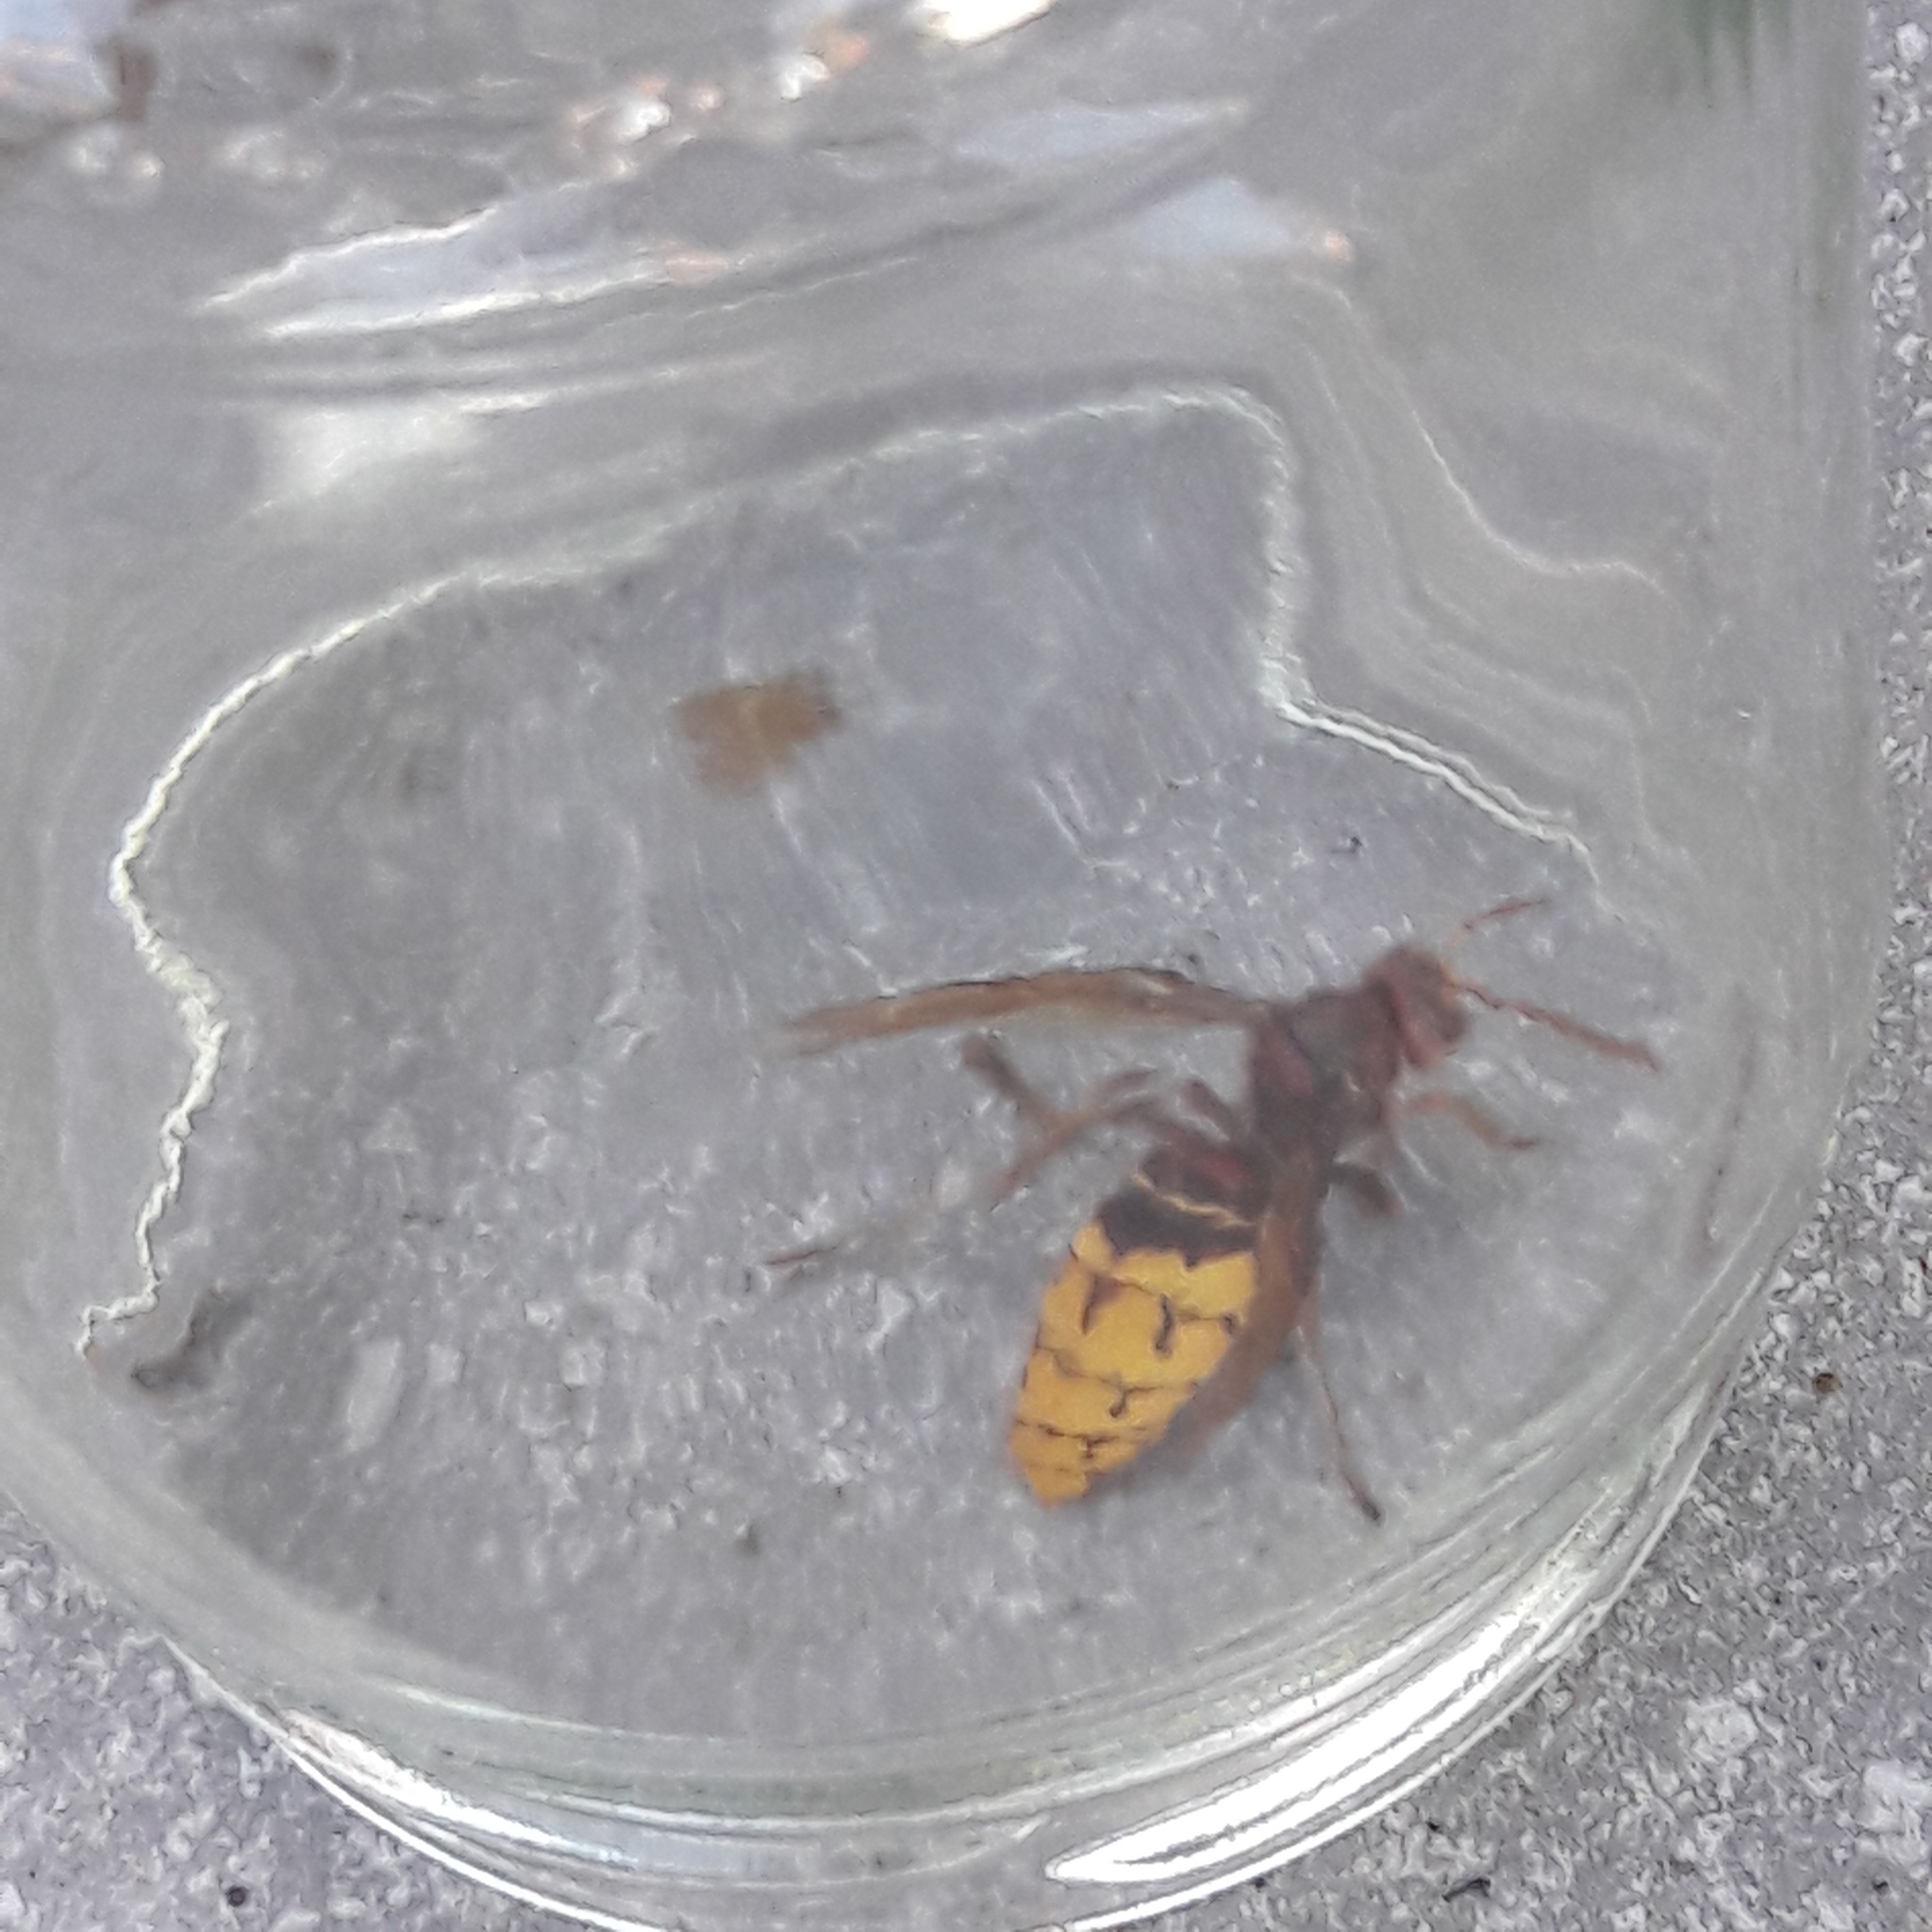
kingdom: Animalia
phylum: Arthropoda
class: Insecta
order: Hymenoptera
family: Vespidae
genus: Vespa
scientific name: Vespa crabro
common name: Hornet
